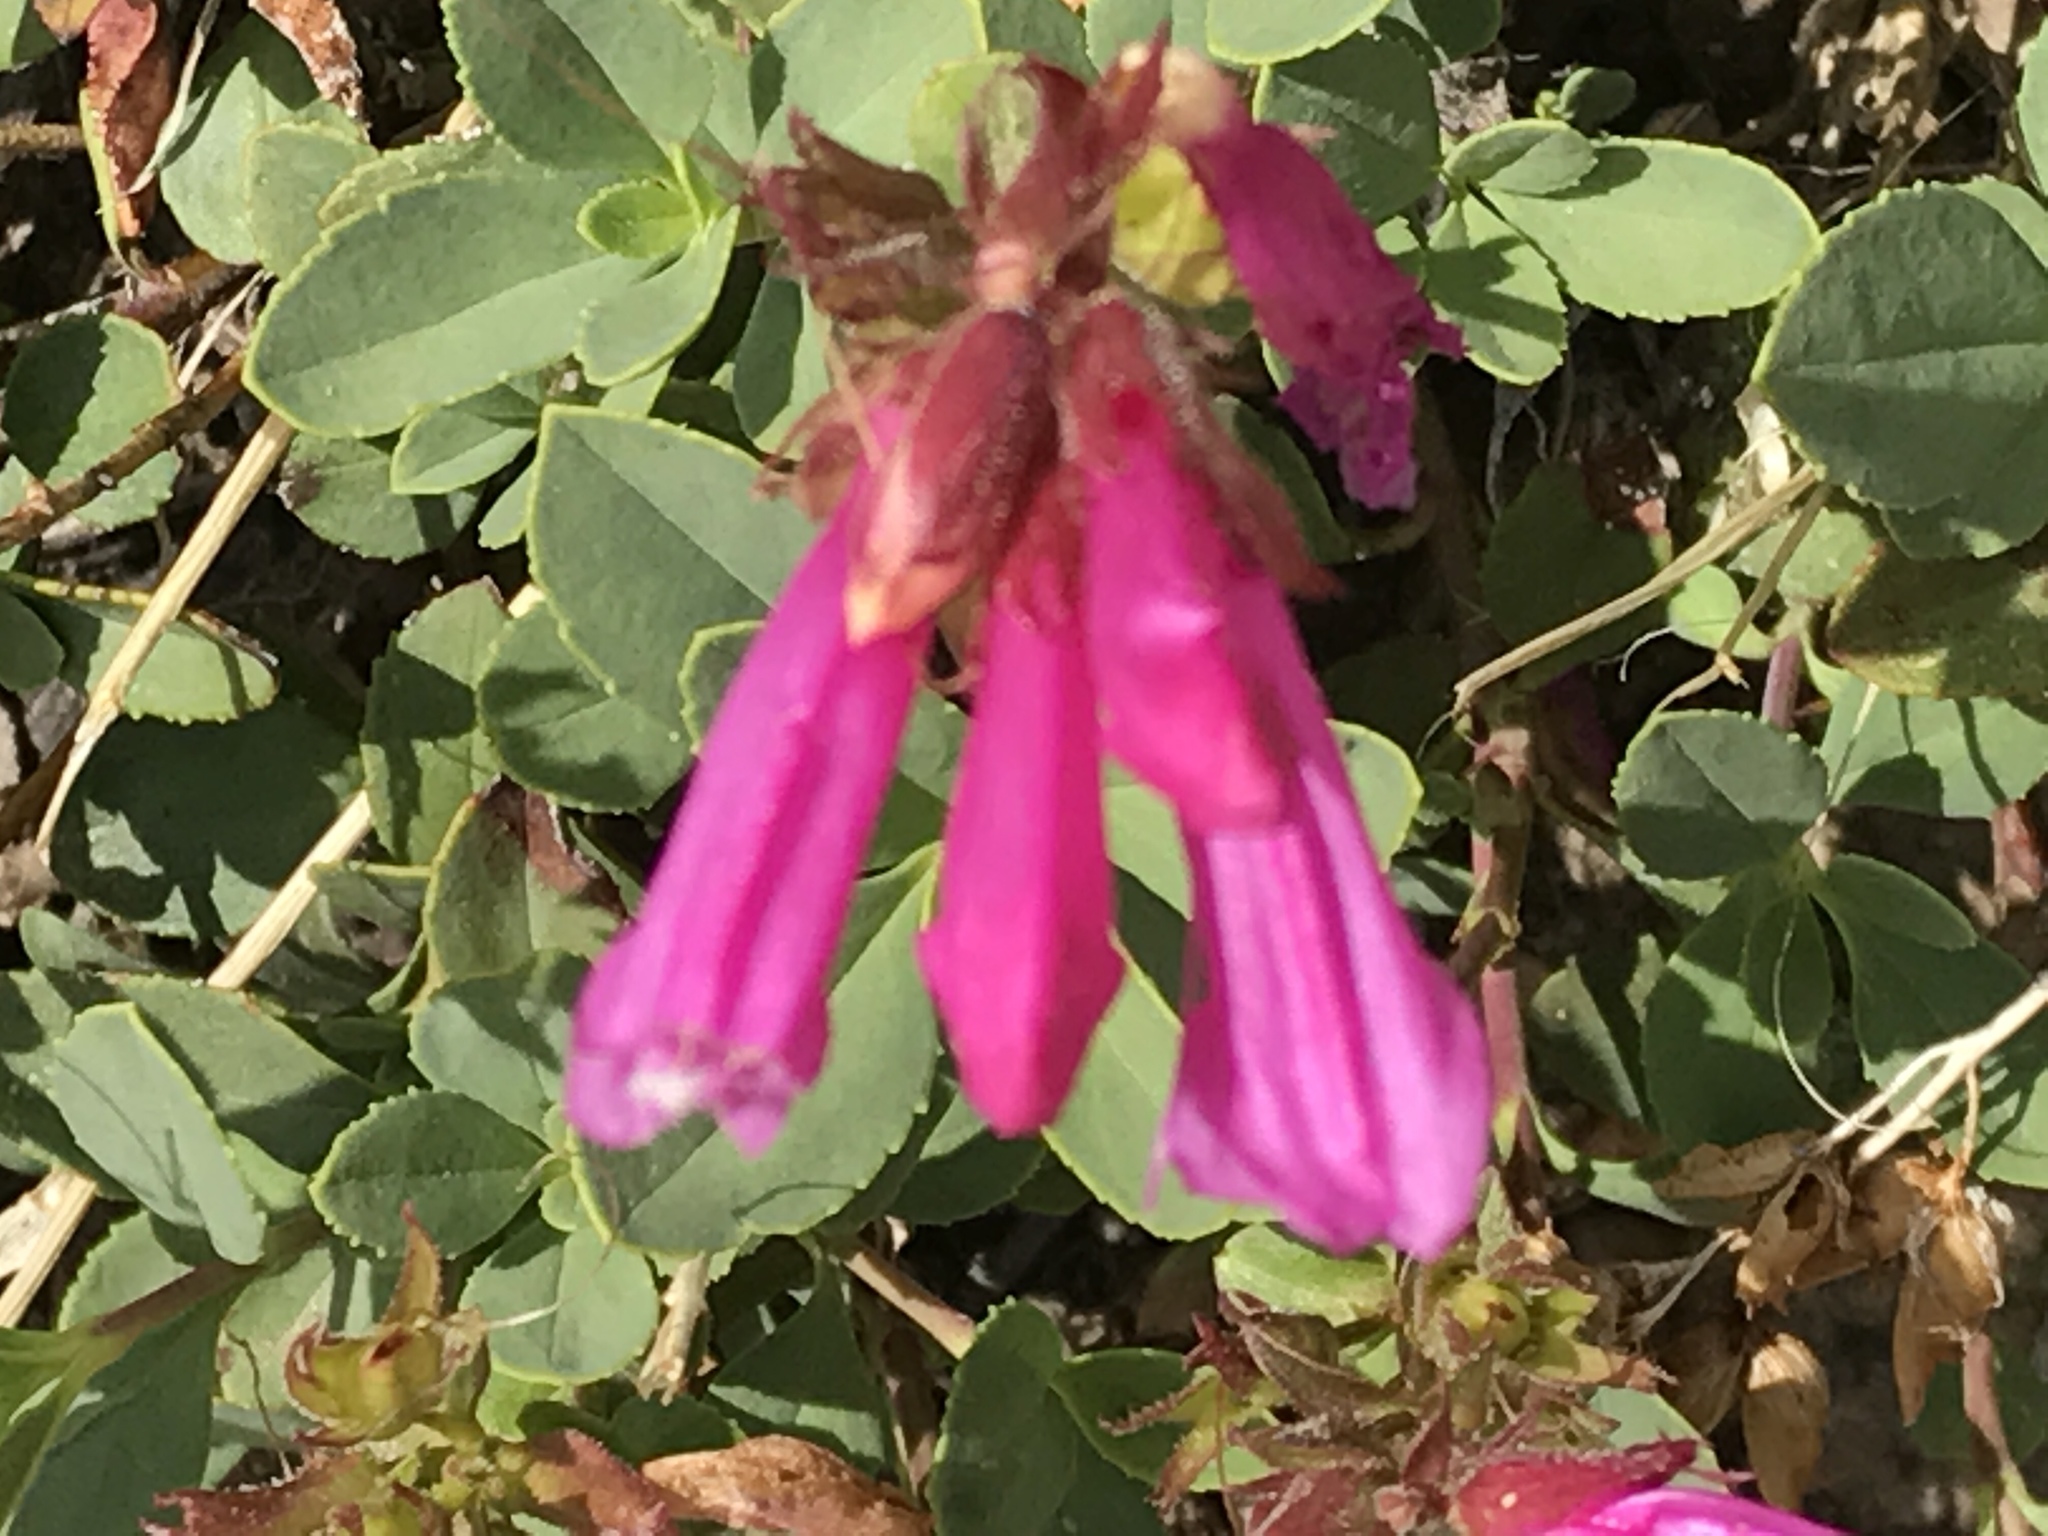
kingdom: Plantae
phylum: Tracheophyta
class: Magnoliopsida
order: Lamiales
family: Plantaginaceae
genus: Penstemon
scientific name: Penstemon newberryi
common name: Mountain-pride
